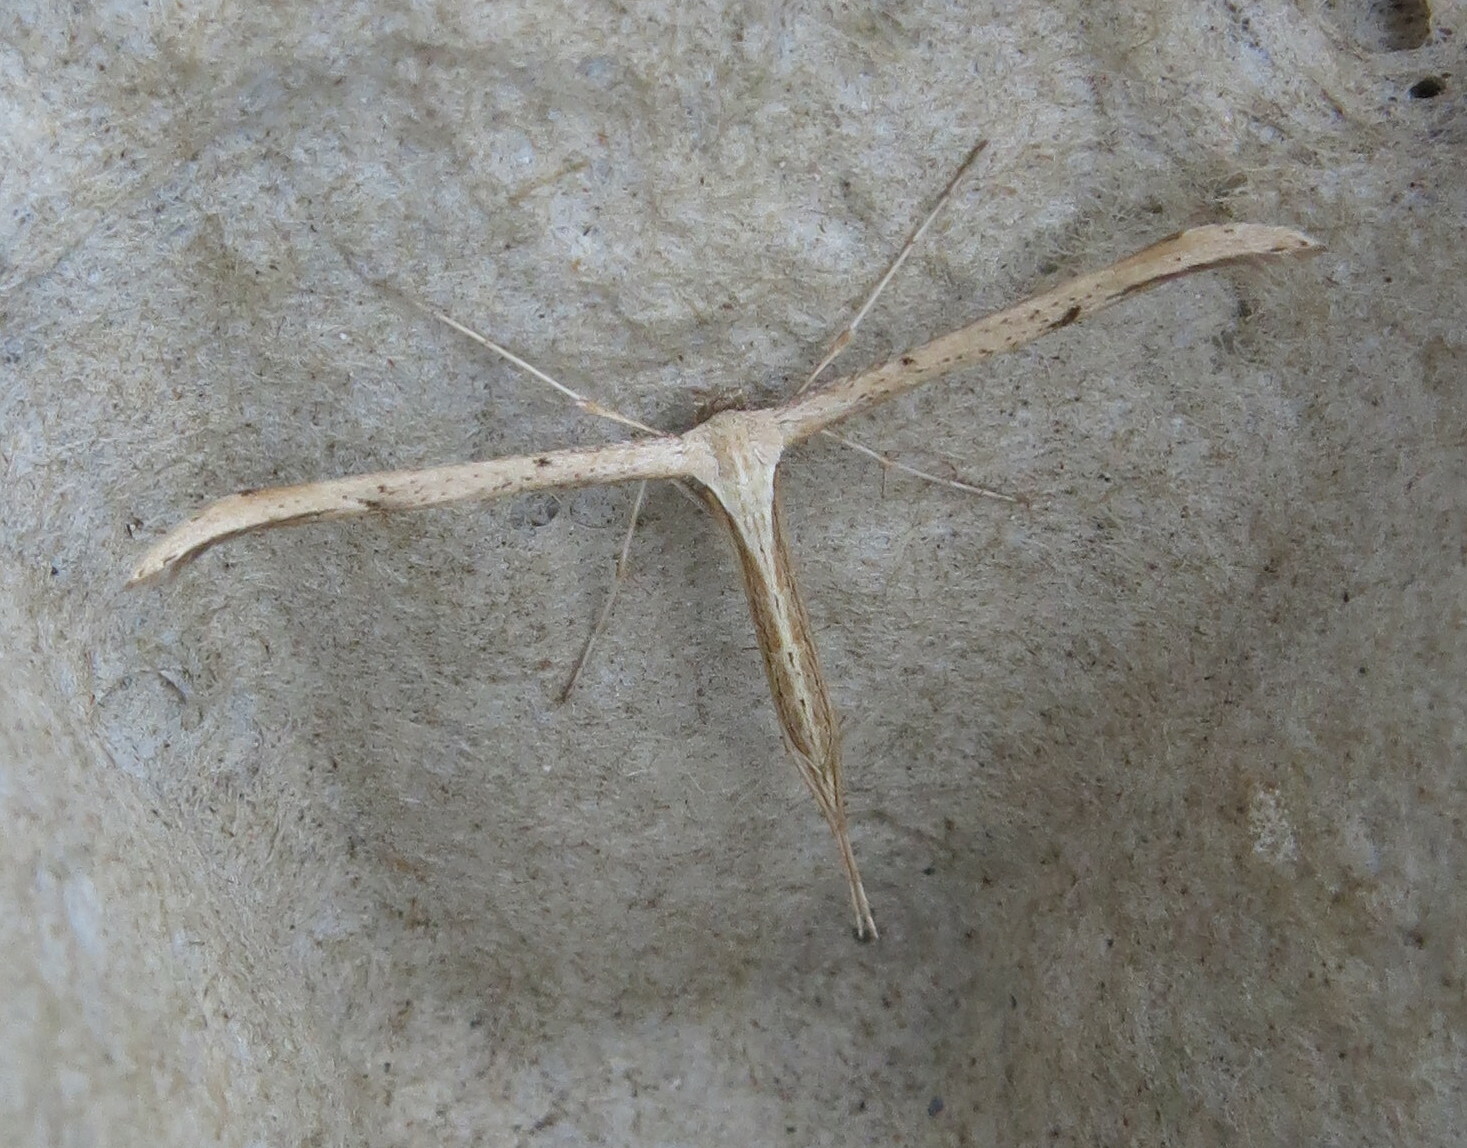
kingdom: Animalia
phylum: Arthropoda
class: Insecta
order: Lepidoptera
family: Pterophoridae
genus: Emmelina
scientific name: Emmelina monodactyla
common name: Common plume
